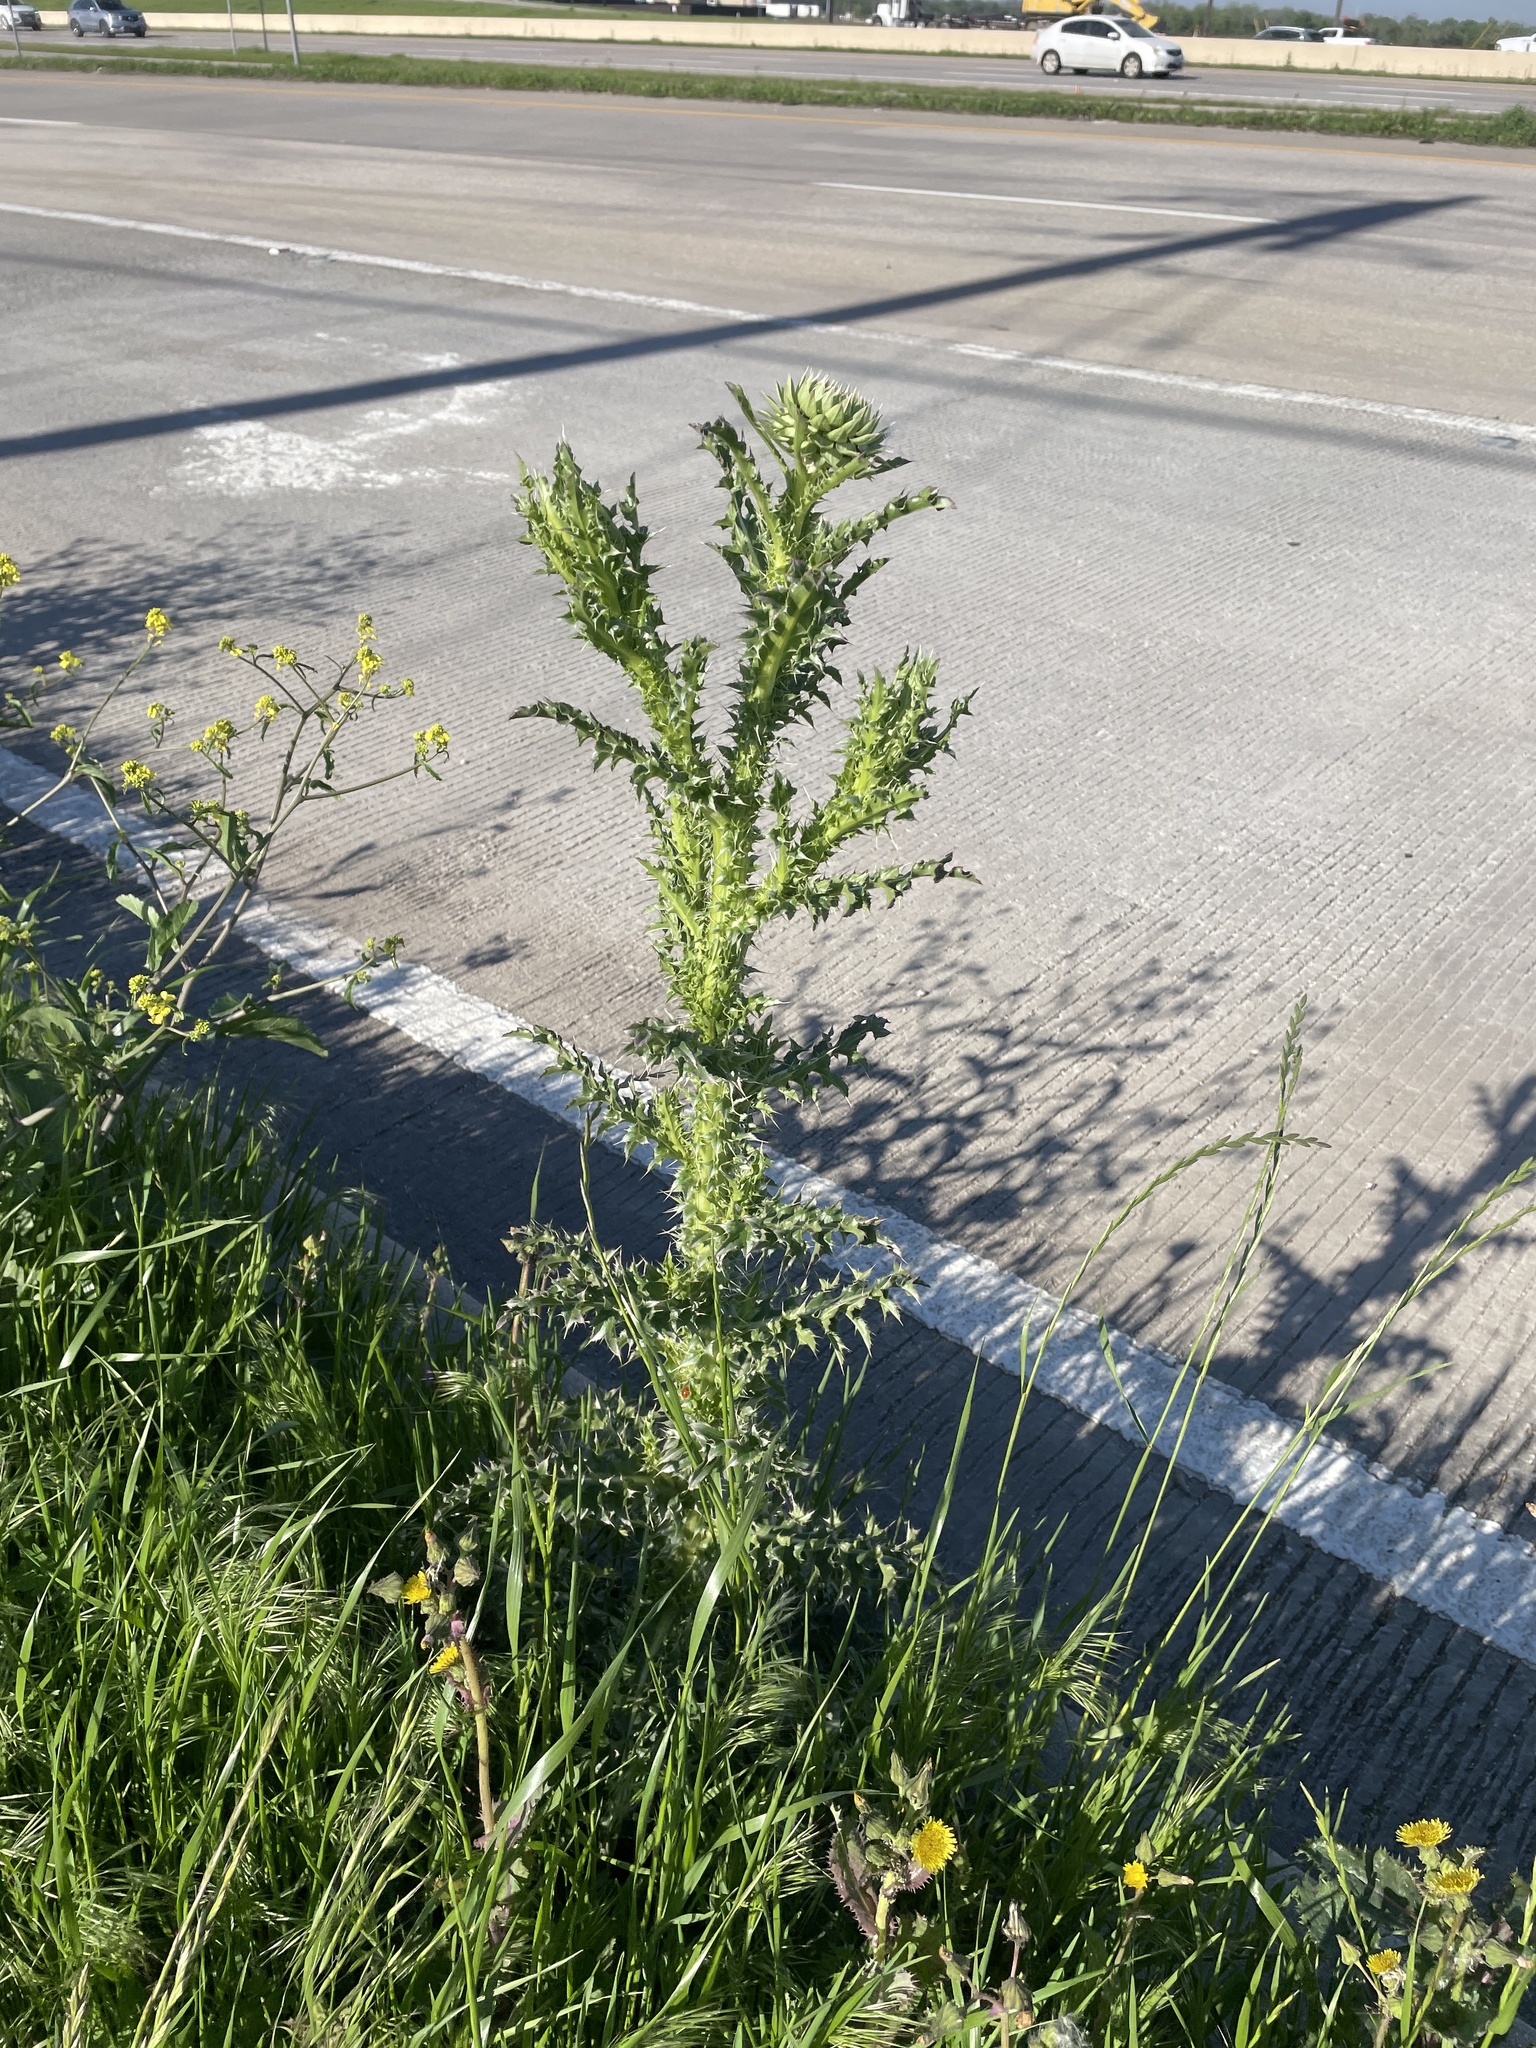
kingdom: Plantae
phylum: Tracheophyta
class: Magnoliopsida
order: Asterales
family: Asteraceae
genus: Carduus
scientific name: Carduus nutans
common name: Musk thistle
